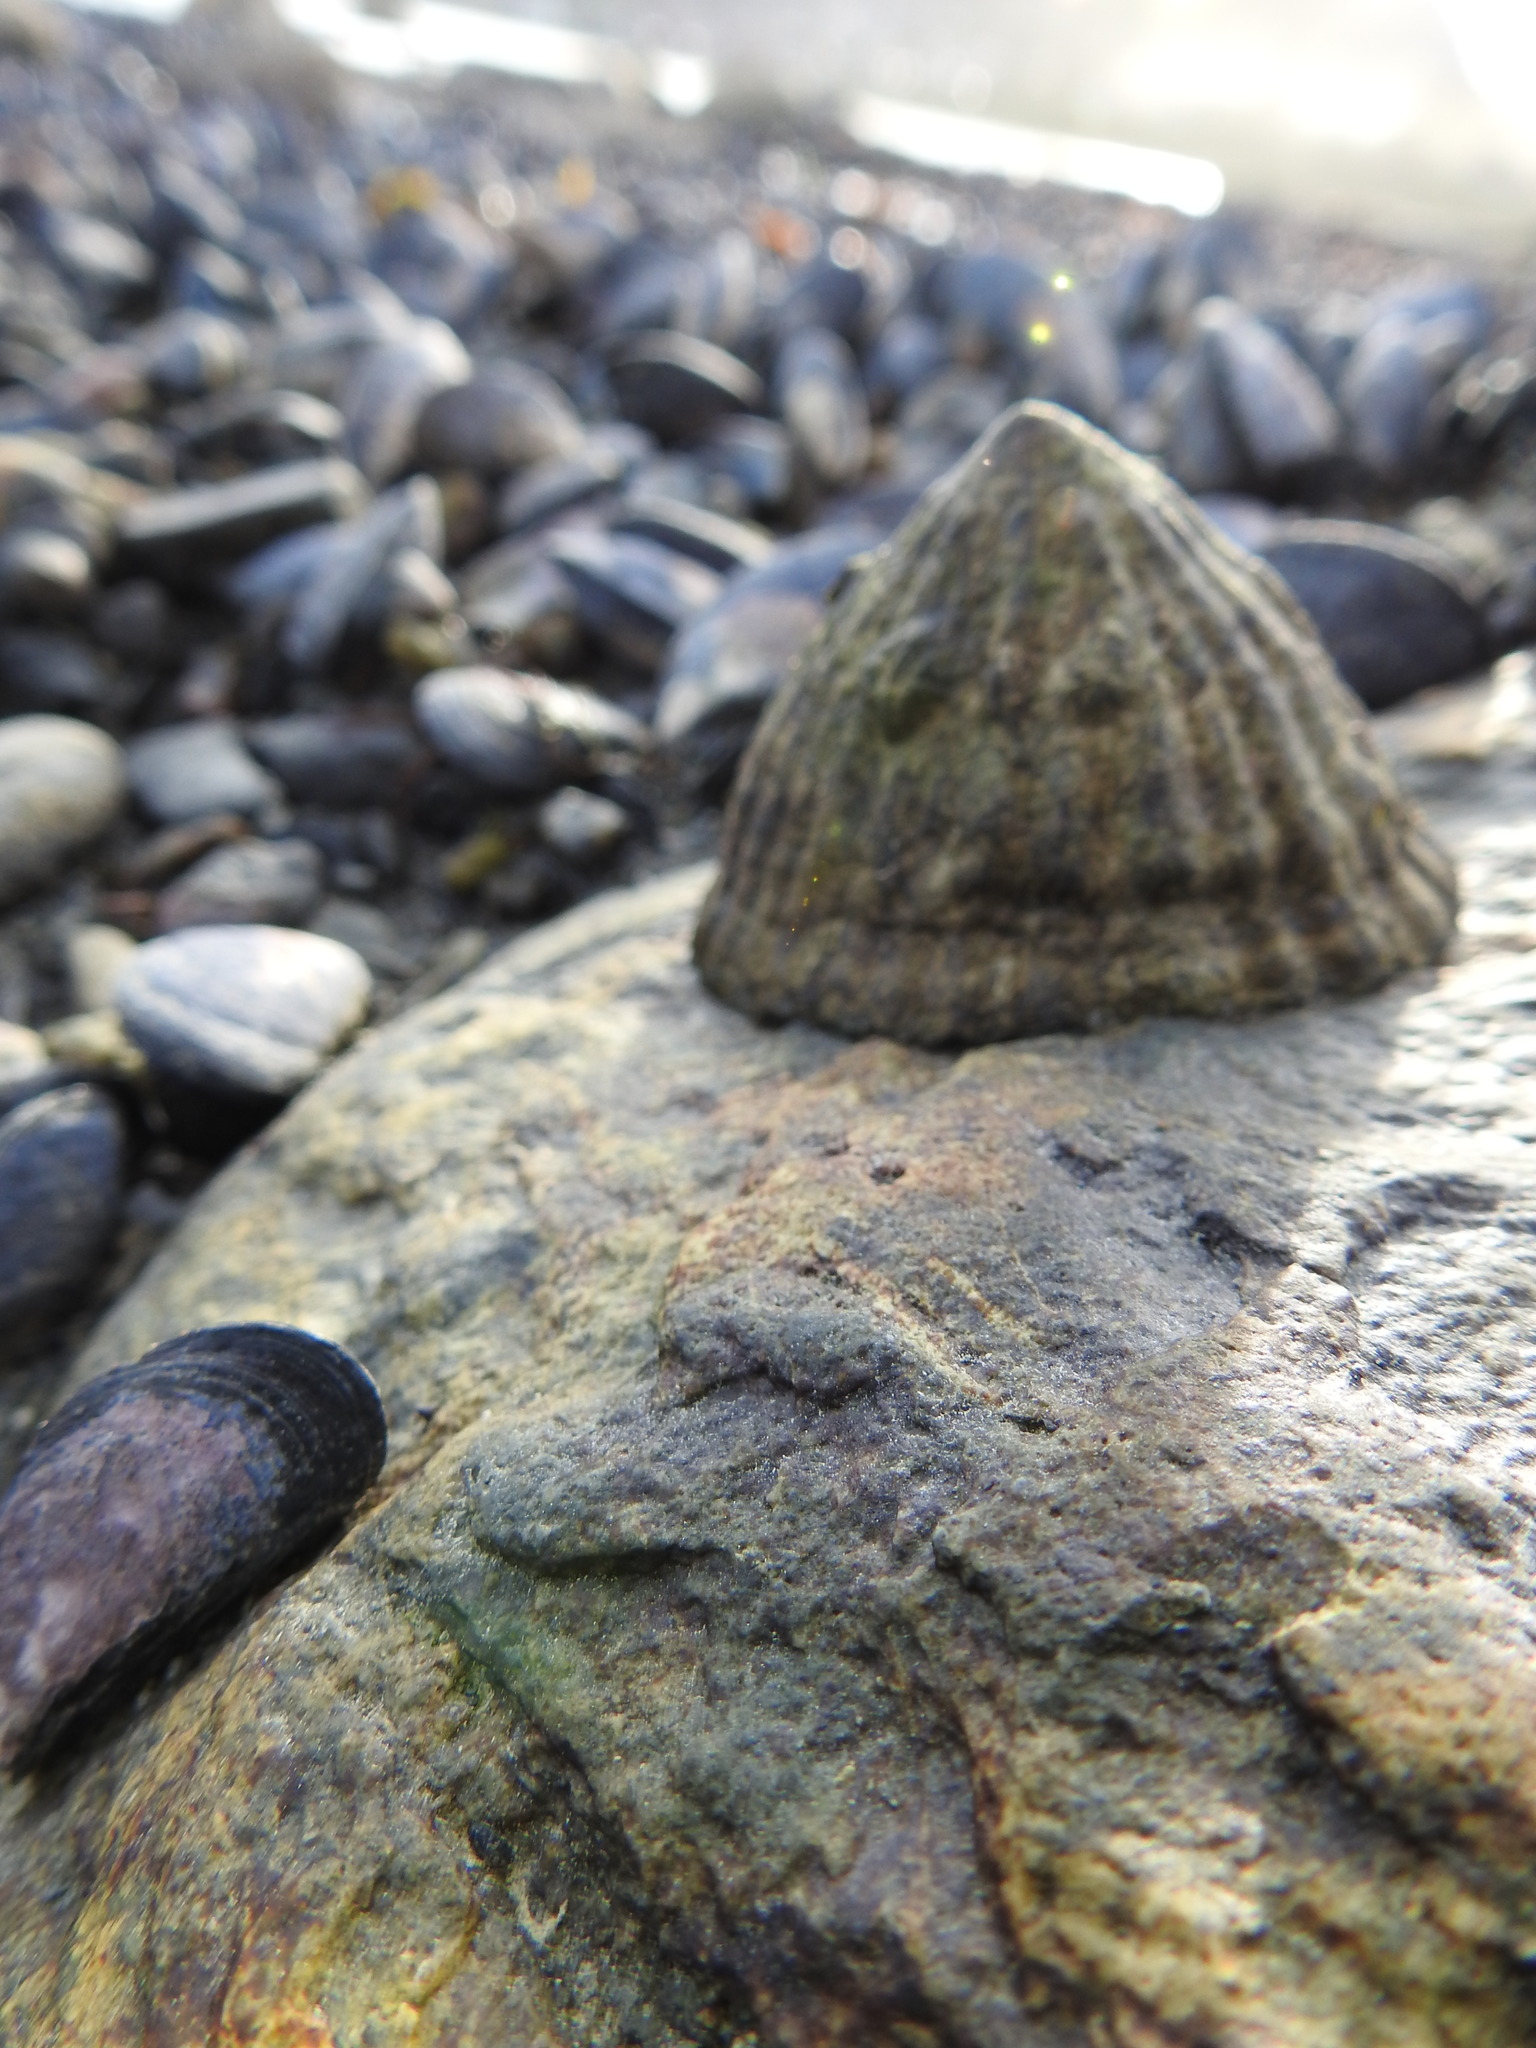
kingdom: Animalia
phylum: Mollusca
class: Gastropoda
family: Nacellidae
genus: Nacella
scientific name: Nacella magellanica
